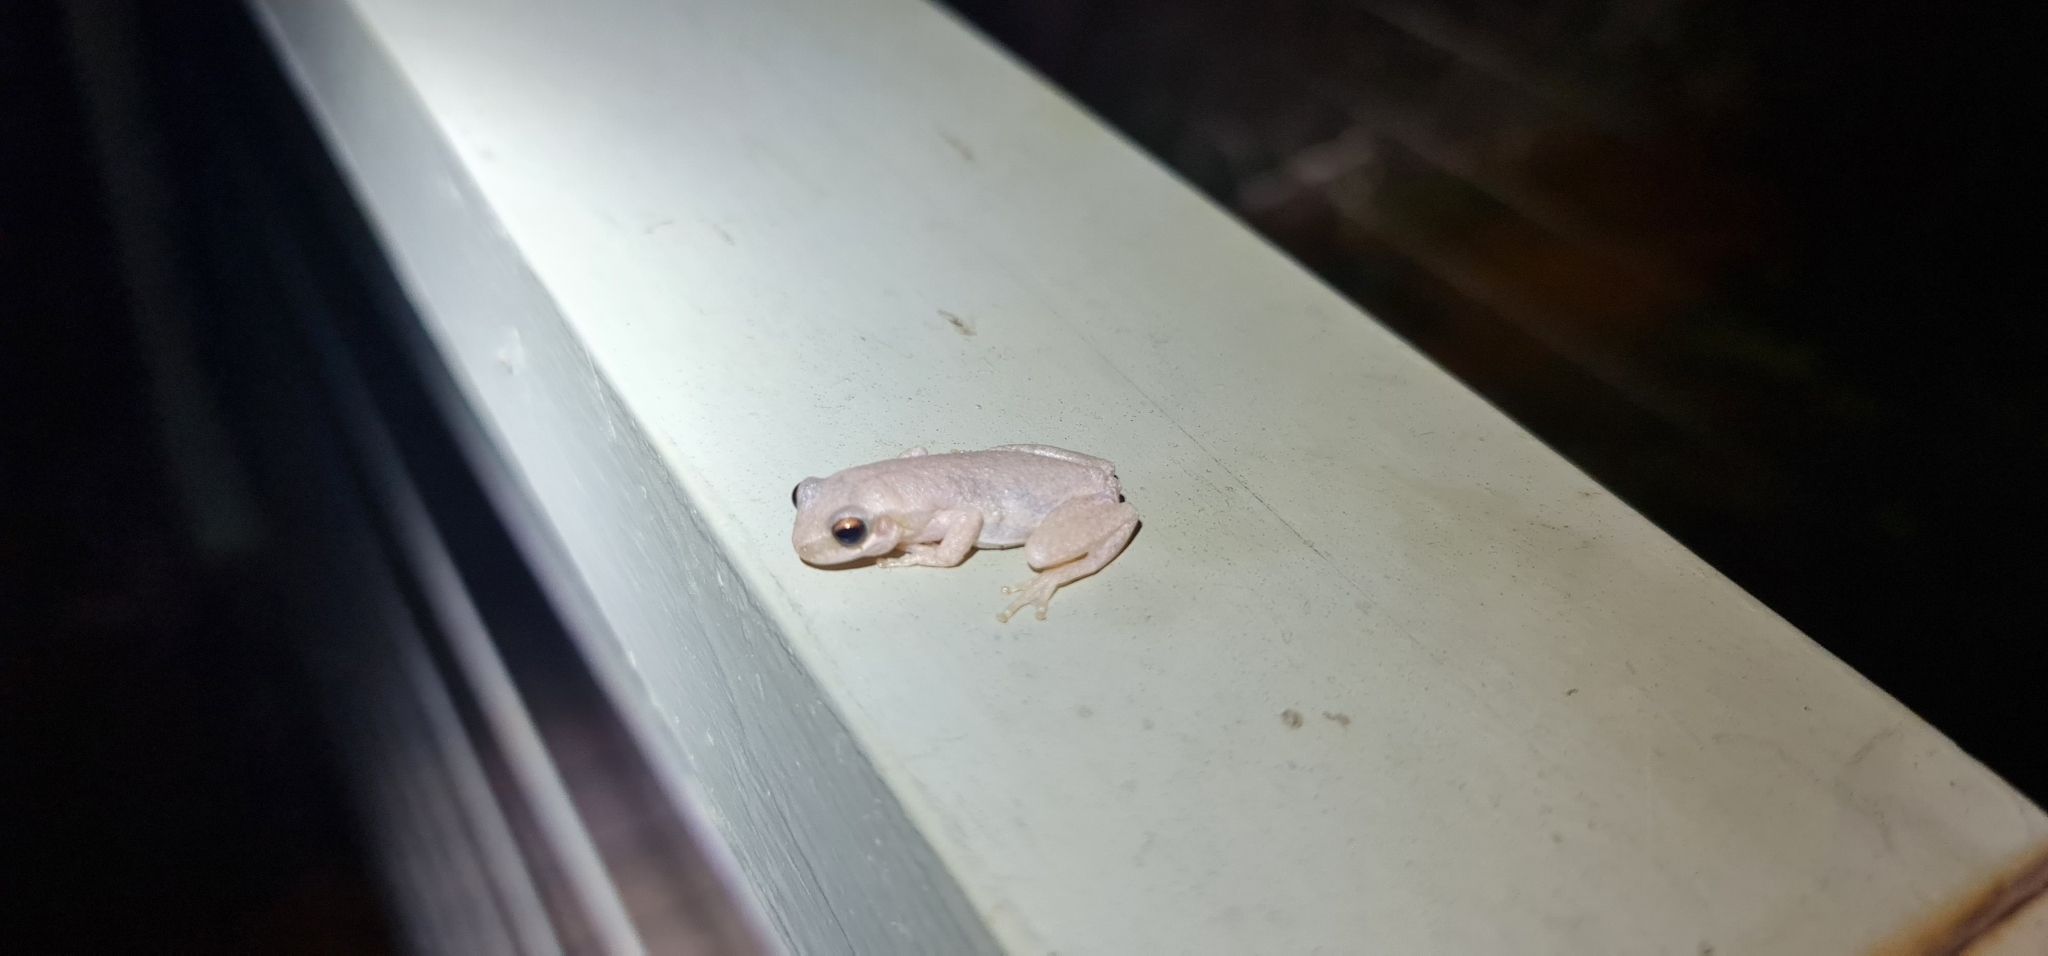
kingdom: Animalia
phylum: Chordata
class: Amphibia
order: Anura
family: Pelodryadidae
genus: Litoria
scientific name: Litoria rubella
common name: Desert tree frog
